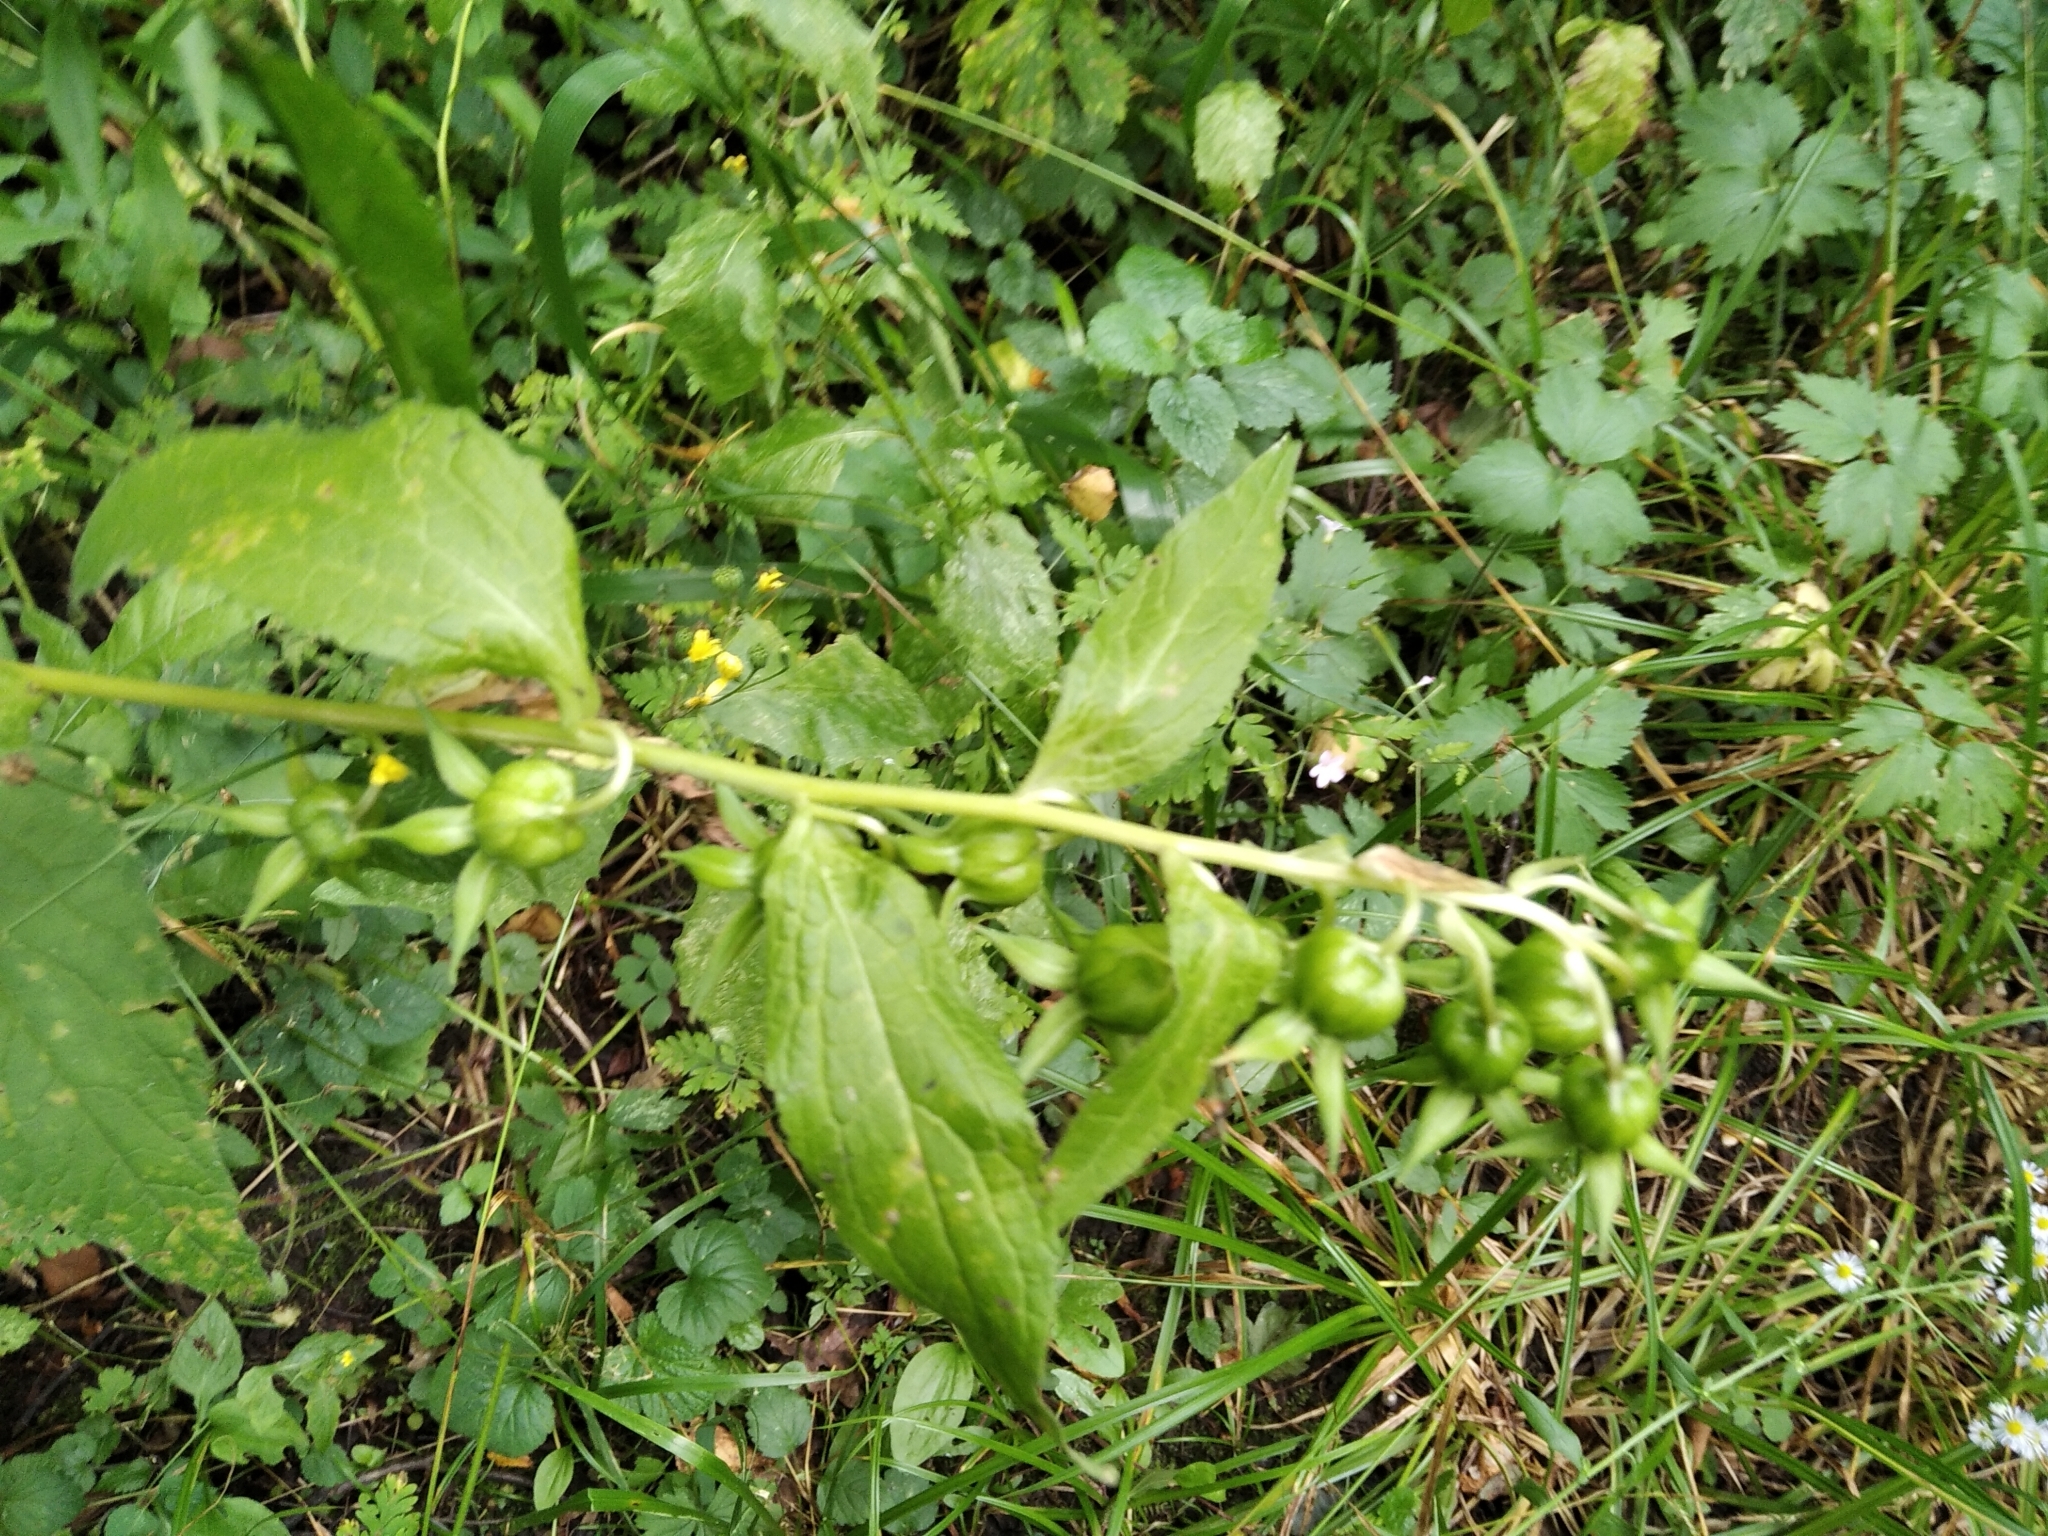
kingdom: Plantae
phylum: Tracheophyta
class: Magnoliopsida
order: Asterales
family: Campanulaceae
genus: Campanula
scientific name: Campanula latifolia
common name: Giant bellflower
